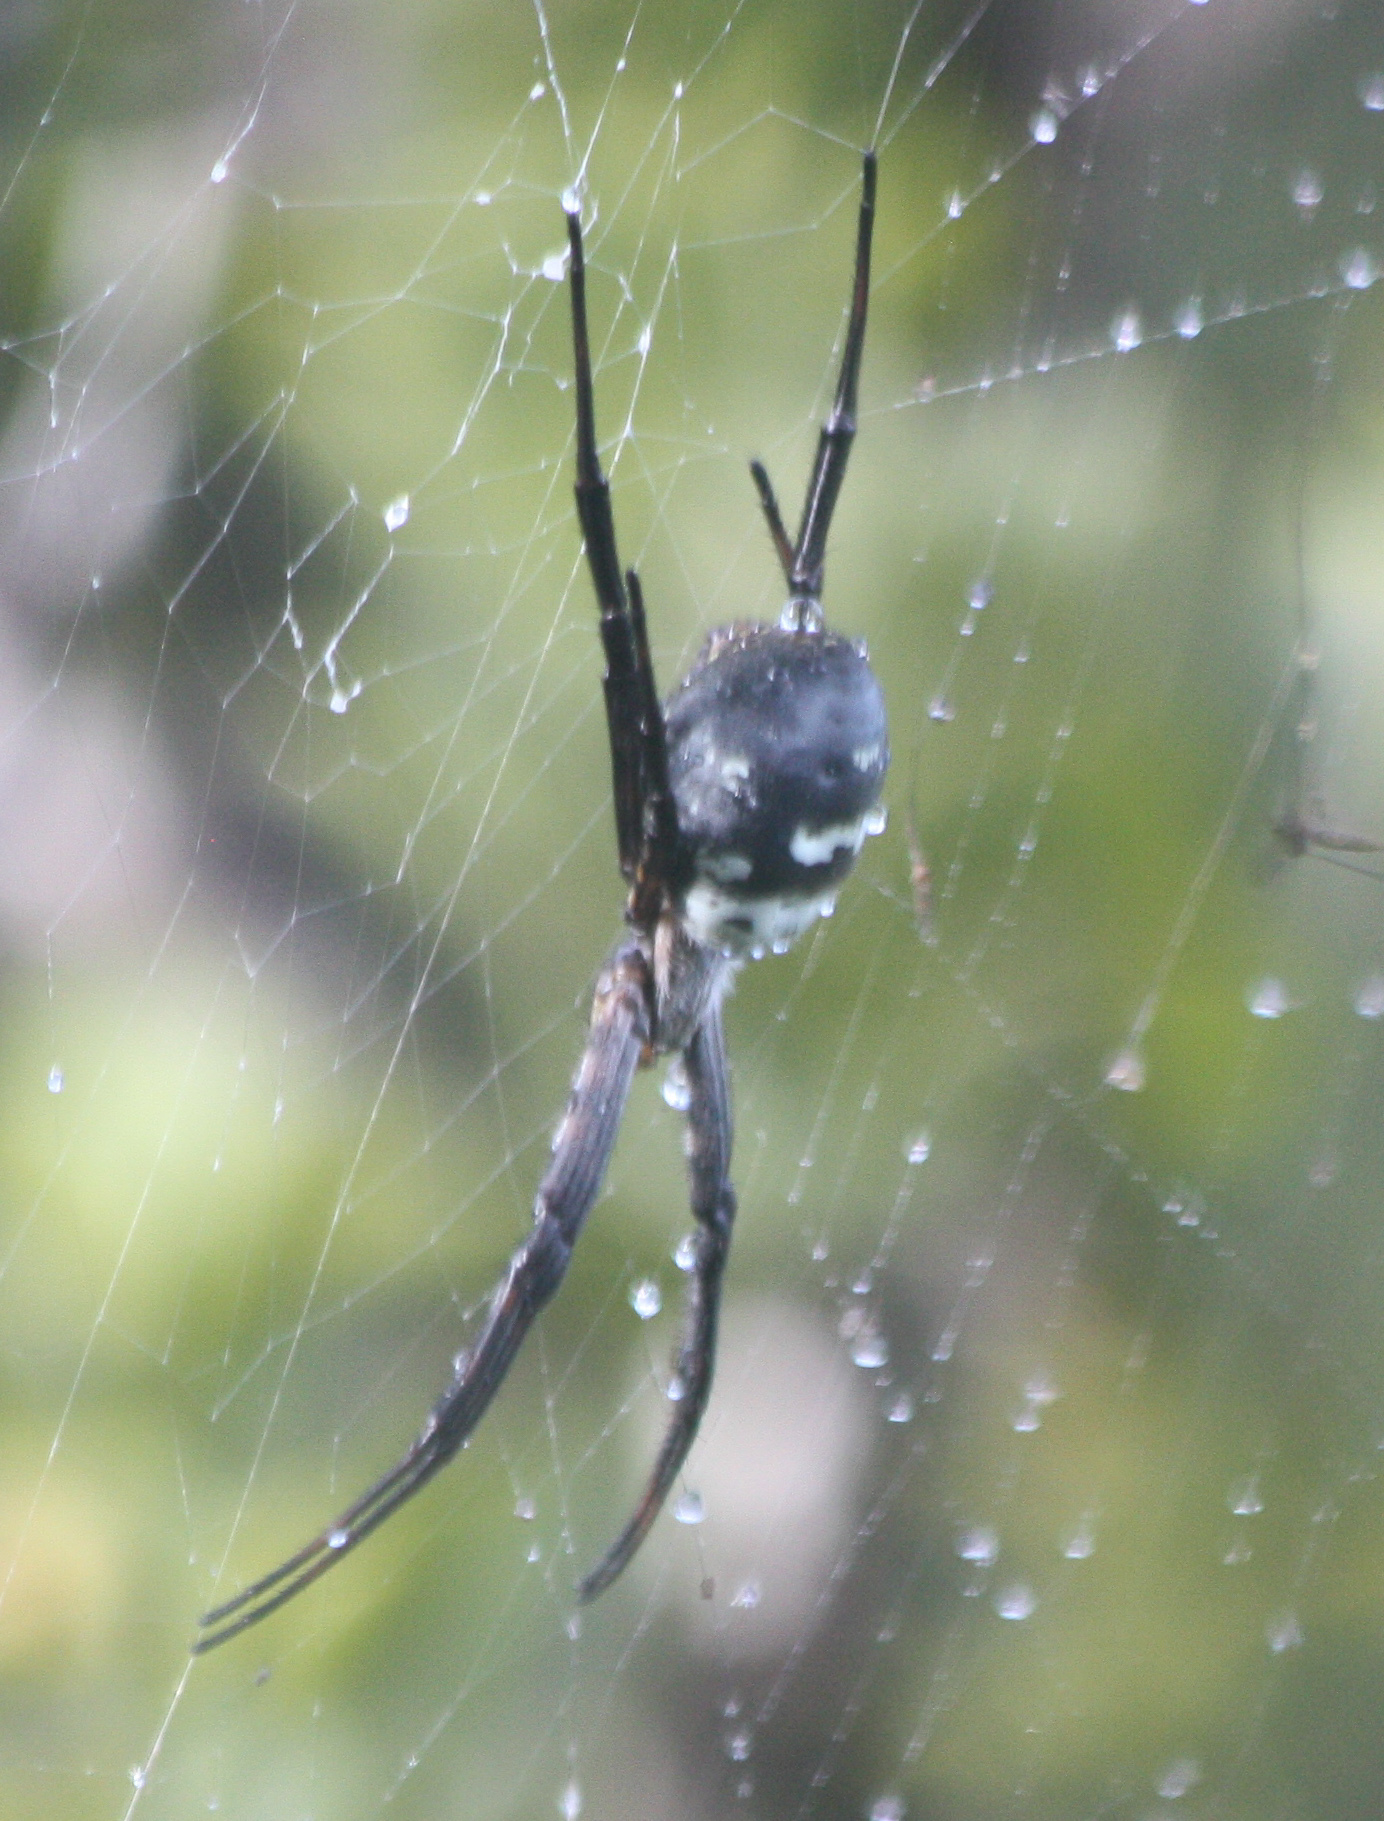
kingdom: Animalia
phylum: Arthropoda
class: Arachnida
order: Araneae
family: Araneidae
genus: Argiope
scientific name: Argiope trifasciata
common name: Banded garden spider
